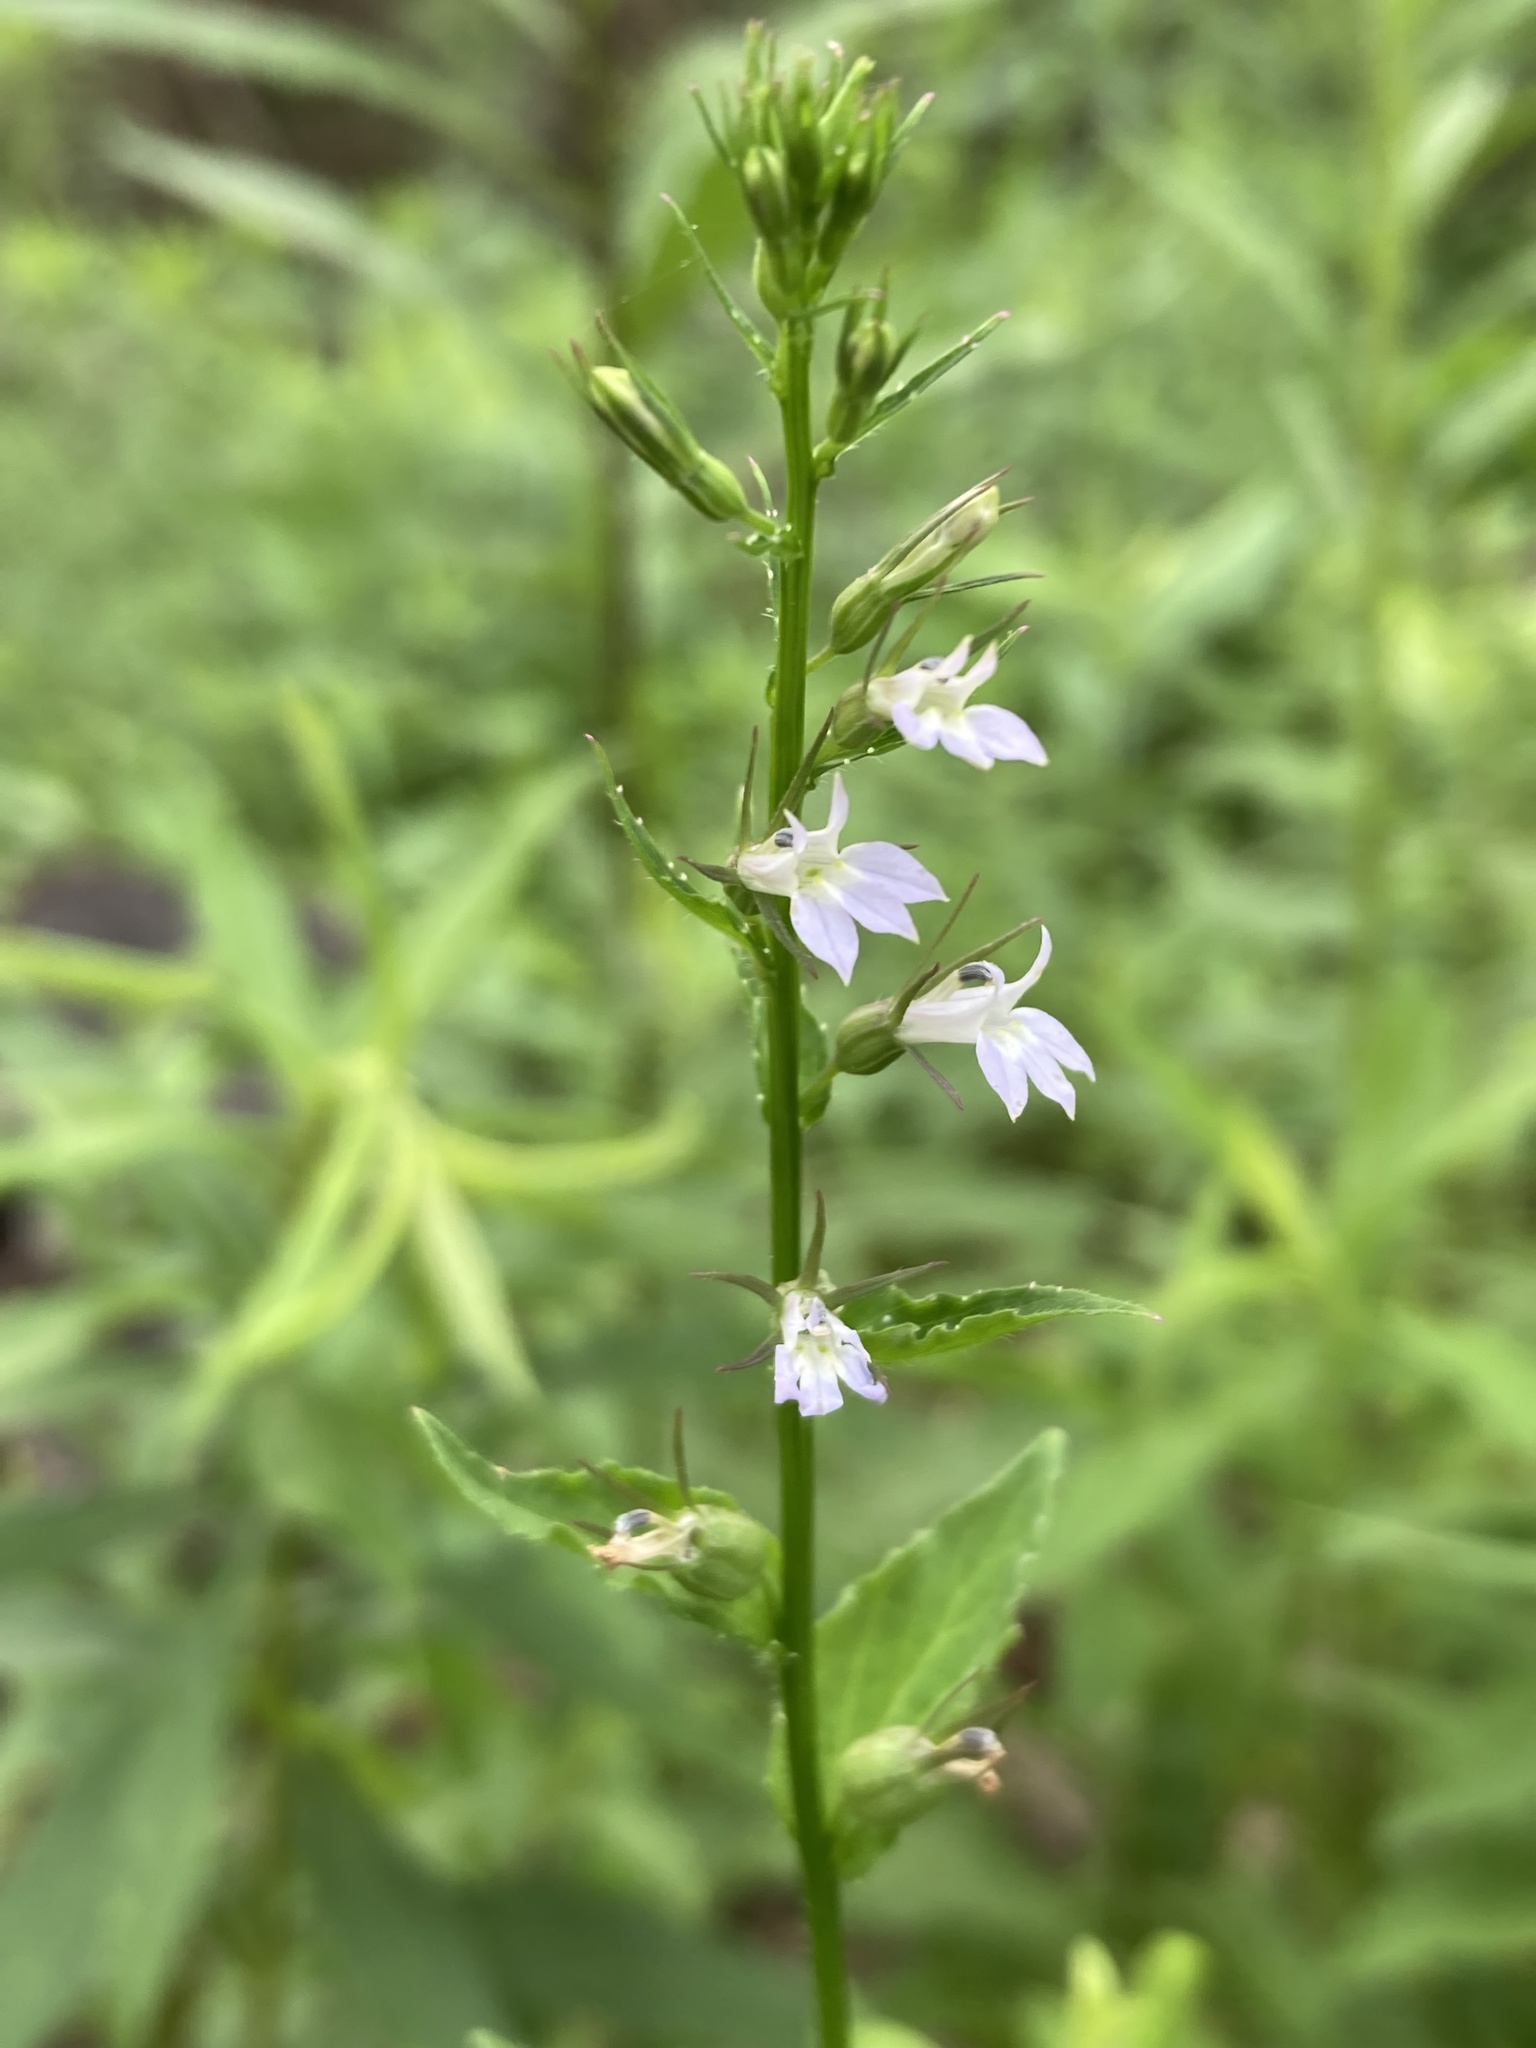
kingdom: Plantae
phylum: Tracheophyta
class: Magnoliopsida
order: Asterales
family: Campanulaceae
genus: Lobelia
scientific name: Lobelia inflata
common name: Indian tobacco
